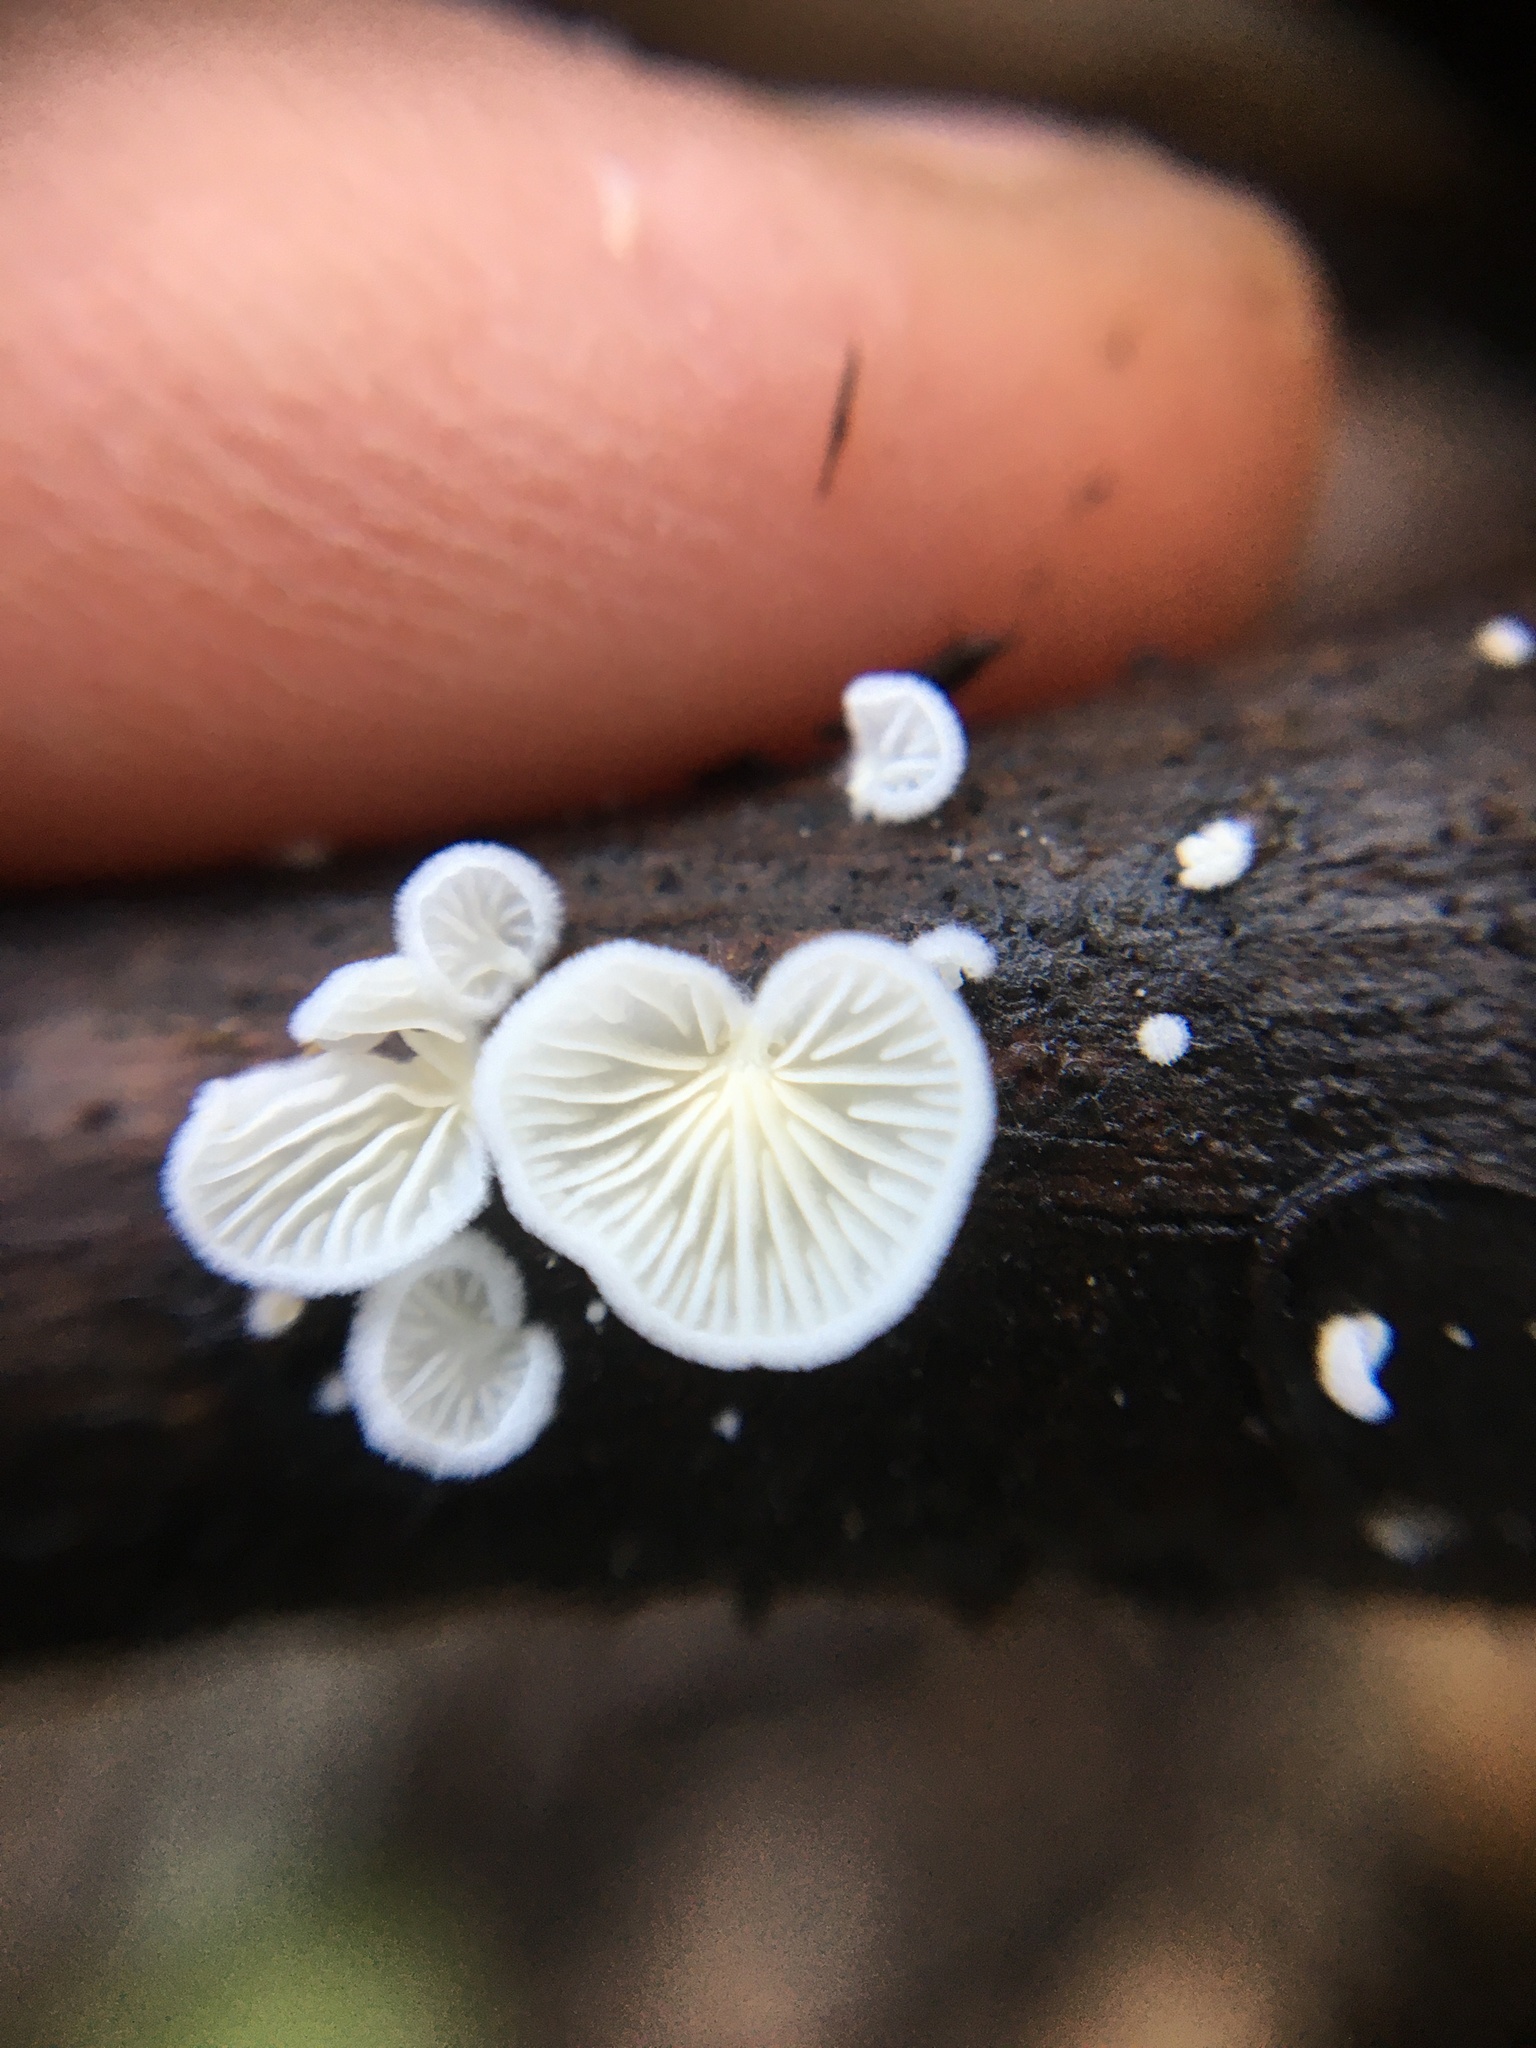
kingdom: Fungi
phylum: Basidiomycota
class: Agaricomycetes
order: Agaricales
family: Omphalotaceae
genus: Marasmiellus
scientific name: Marasmiellus candidus
